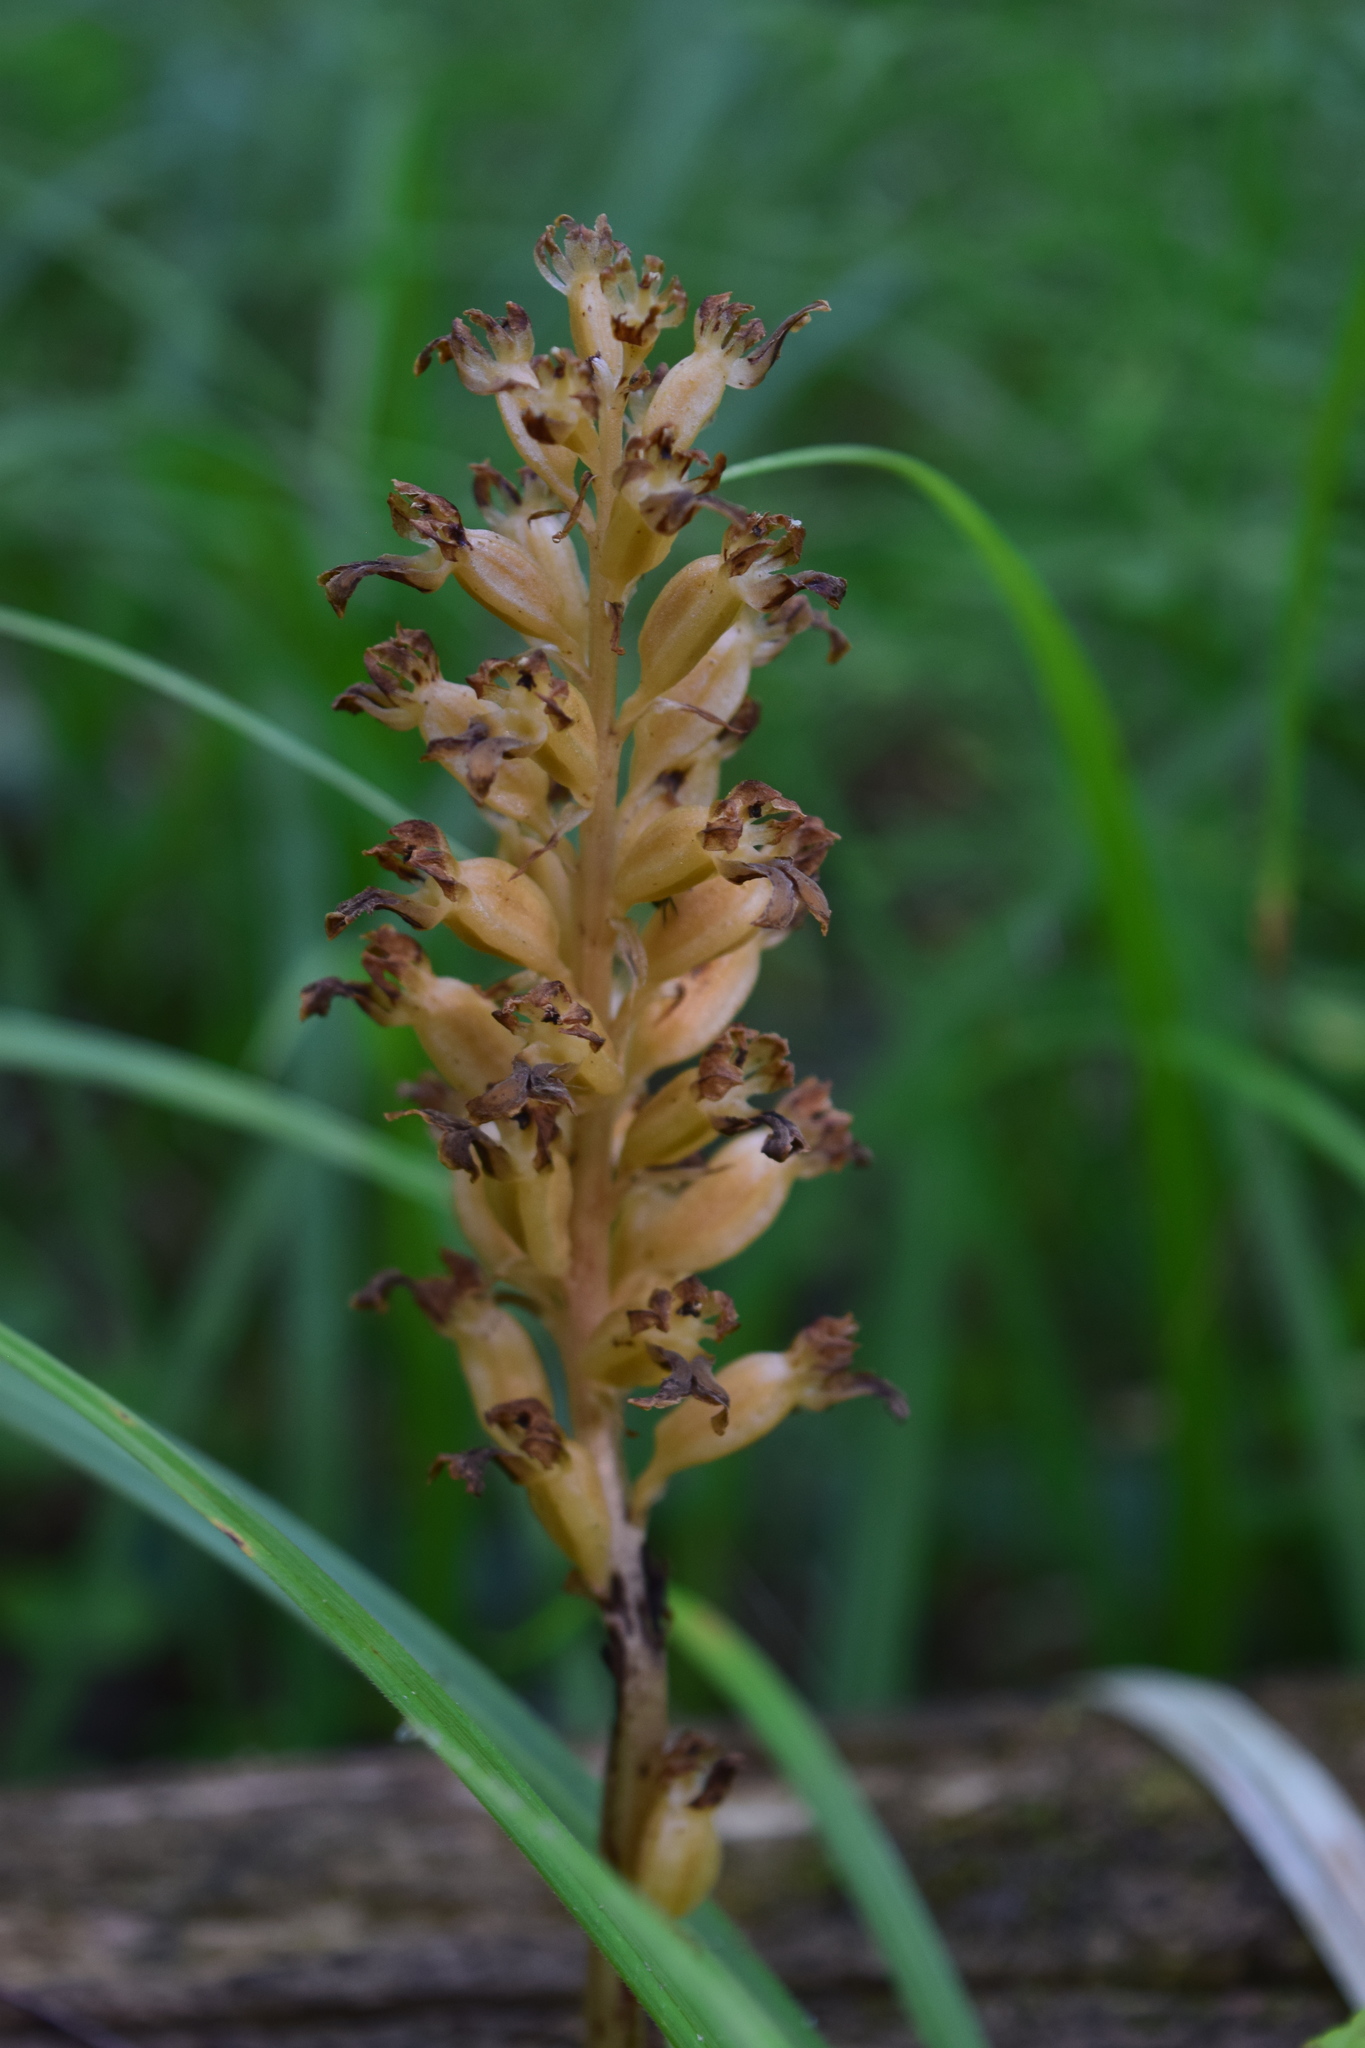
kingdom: Plantae
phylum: Tracheophyta
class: Liliopsida
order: Asparagales
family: Orchidaceae
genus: Neottia
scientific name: Neottia nidus-avis
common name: Bird's-nest orchid
